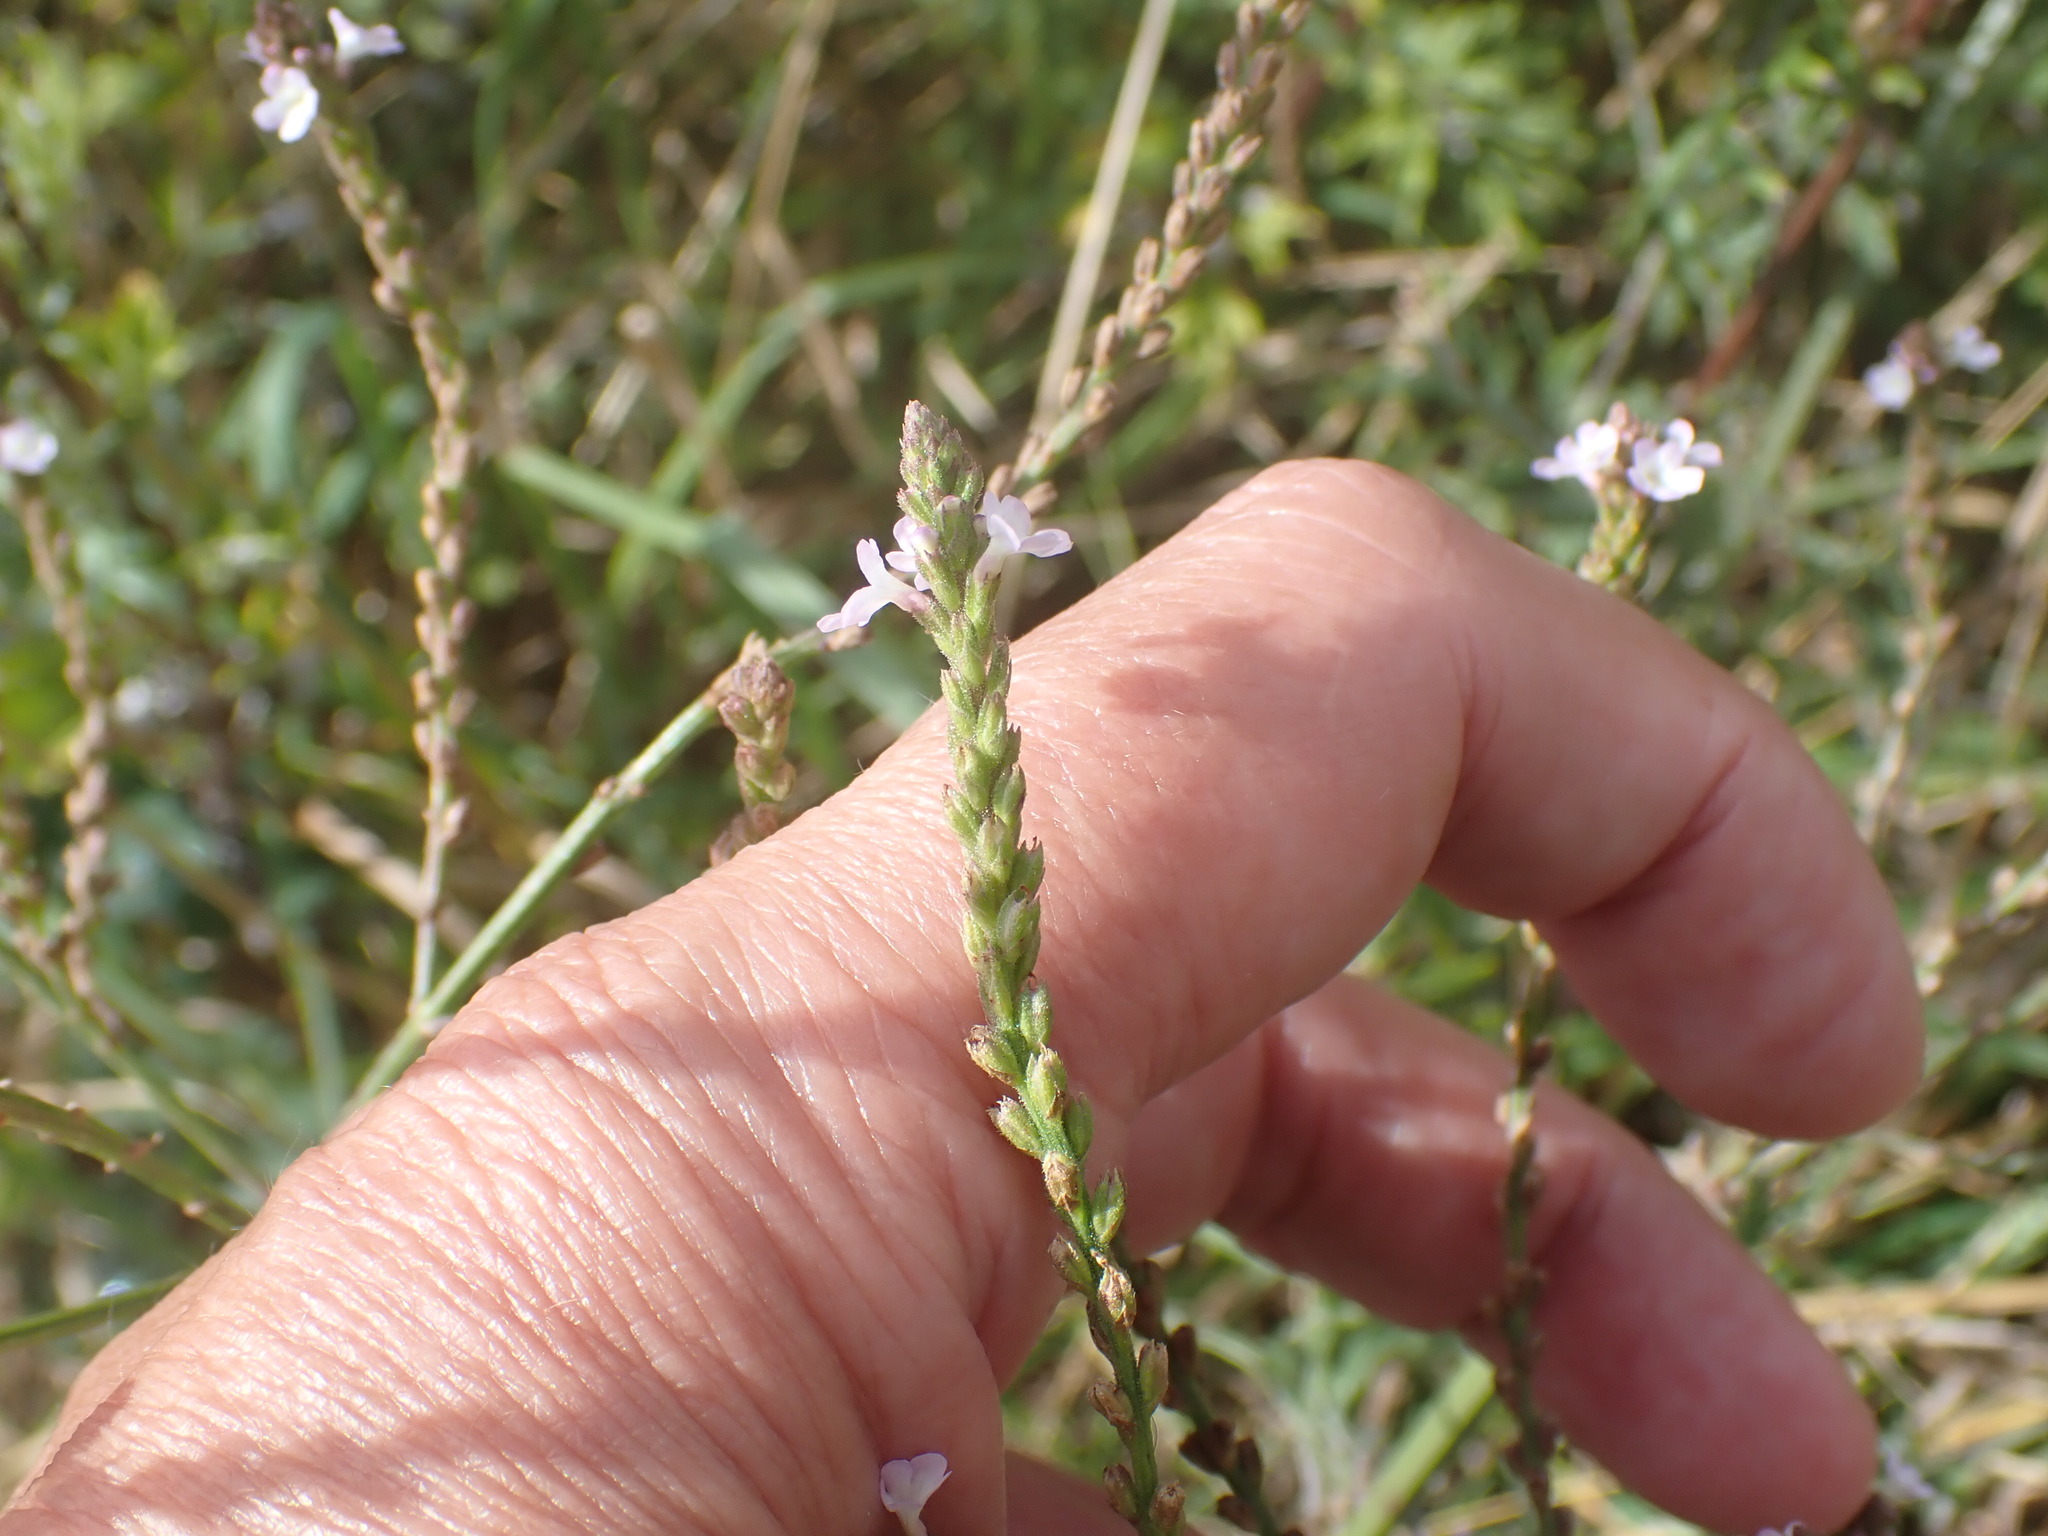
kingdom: Plantae
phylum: Tracheophyta
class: Magnoliopsida
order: Lamiales
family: Verbenaceae
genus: Verbena
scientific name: Verbena officinalis
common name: Vervain
